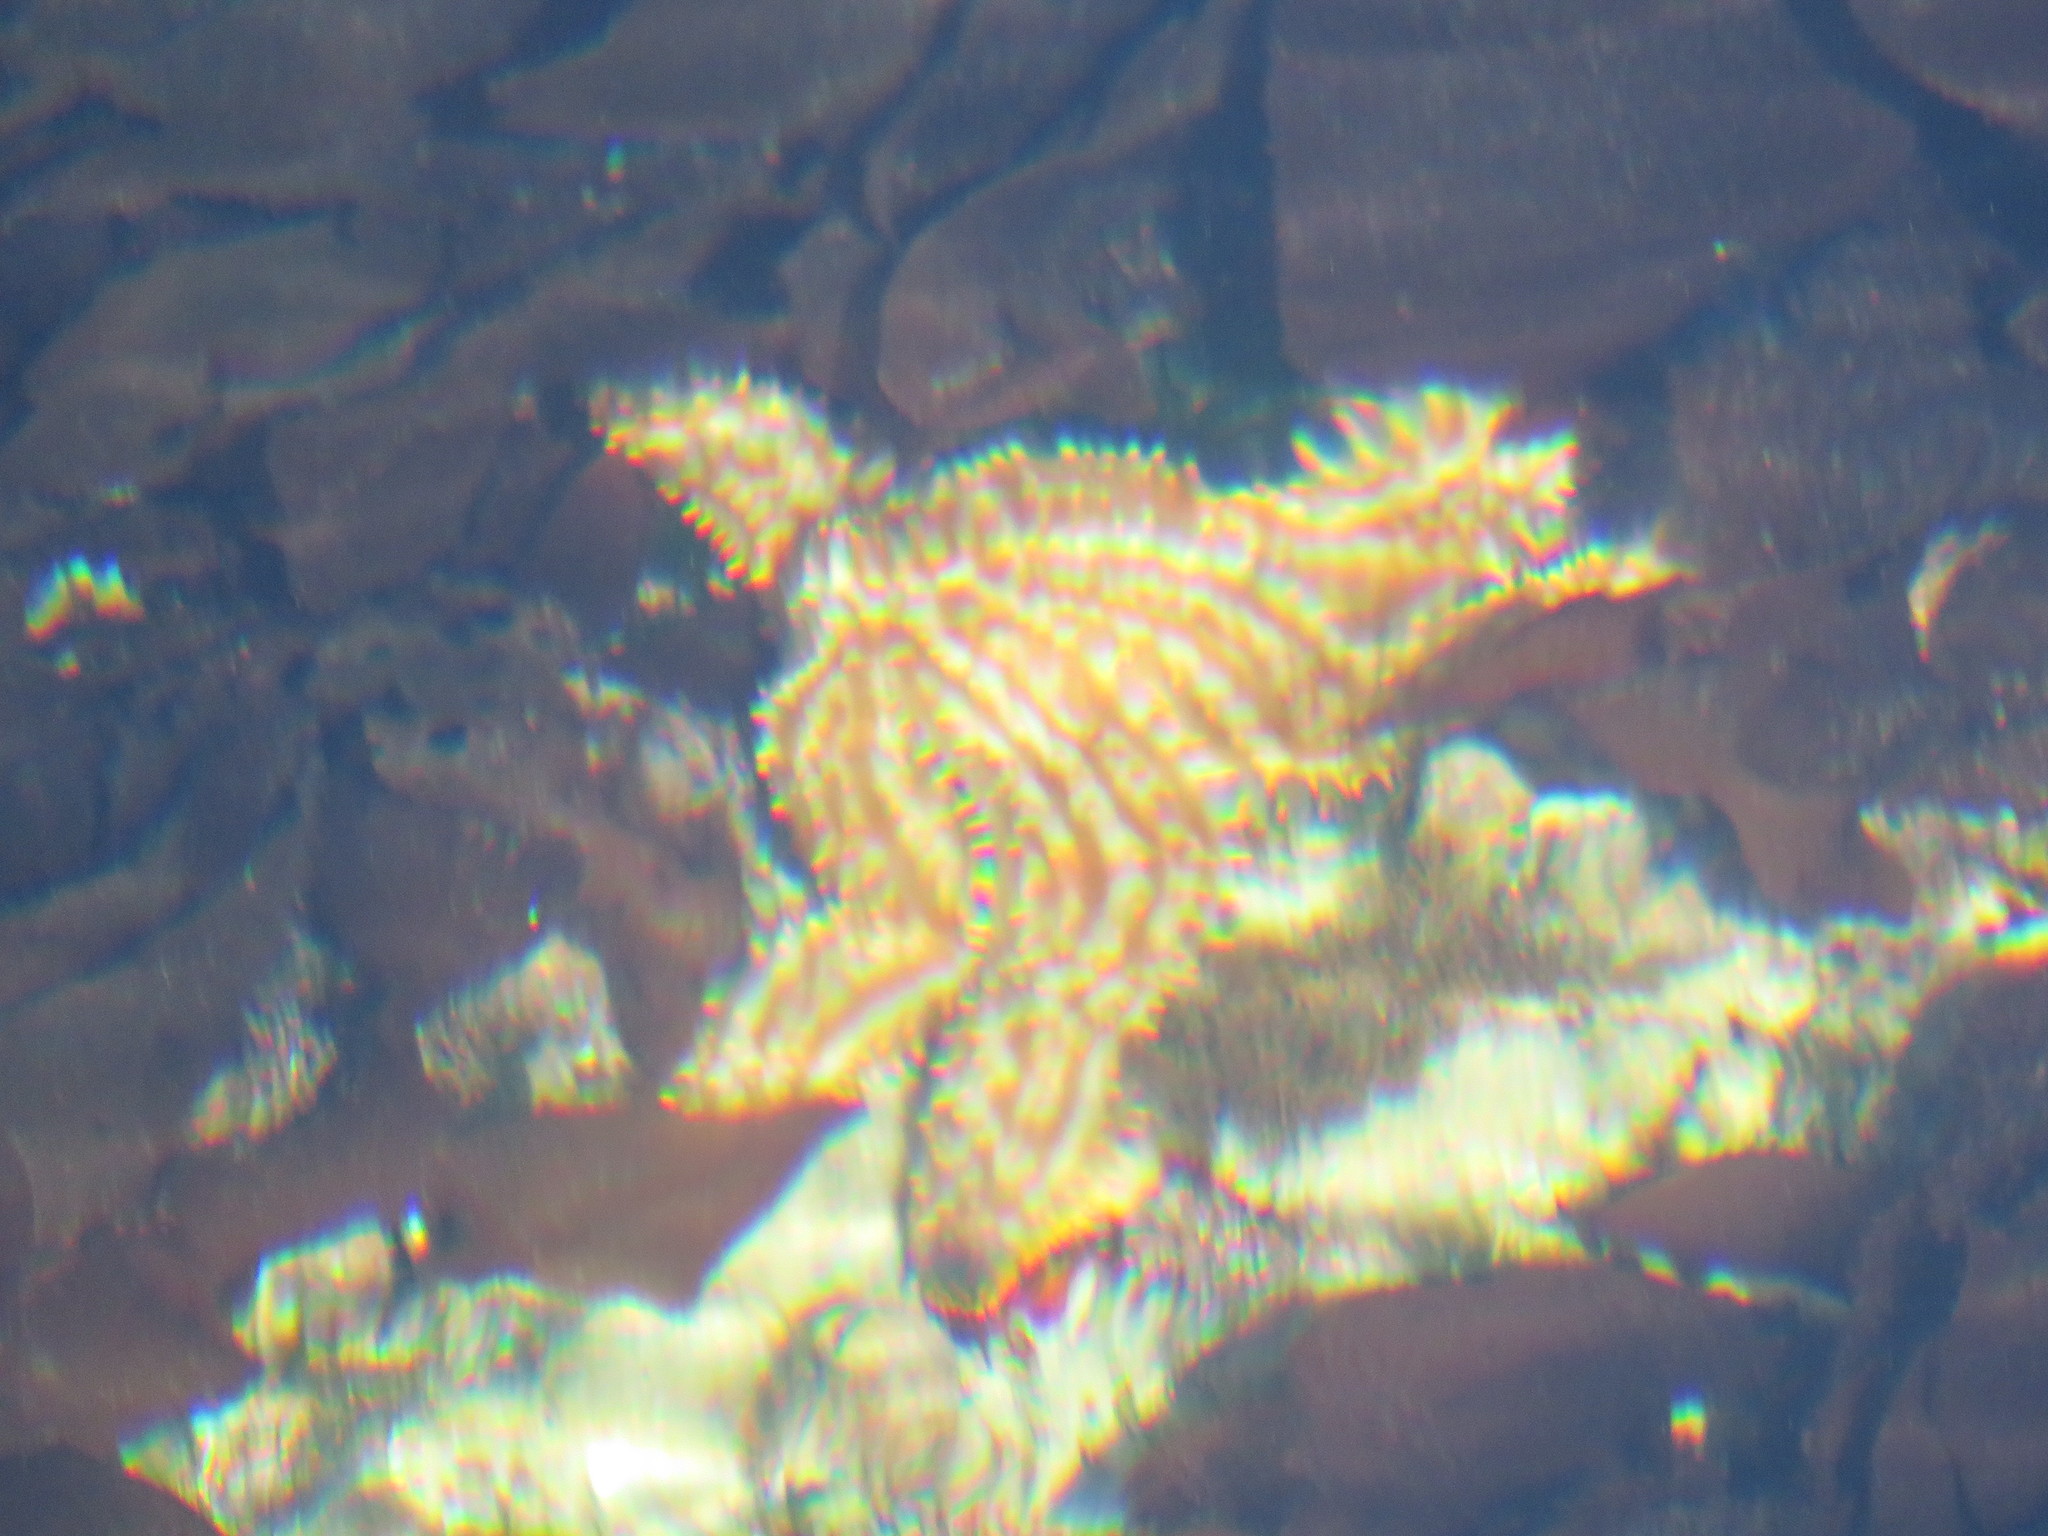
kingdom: Animalia
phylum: Echinodermata
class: Asteroidea
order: Forcipulatida
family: Asteriidae
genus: Marthasterias
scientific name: Marthasterias africana
